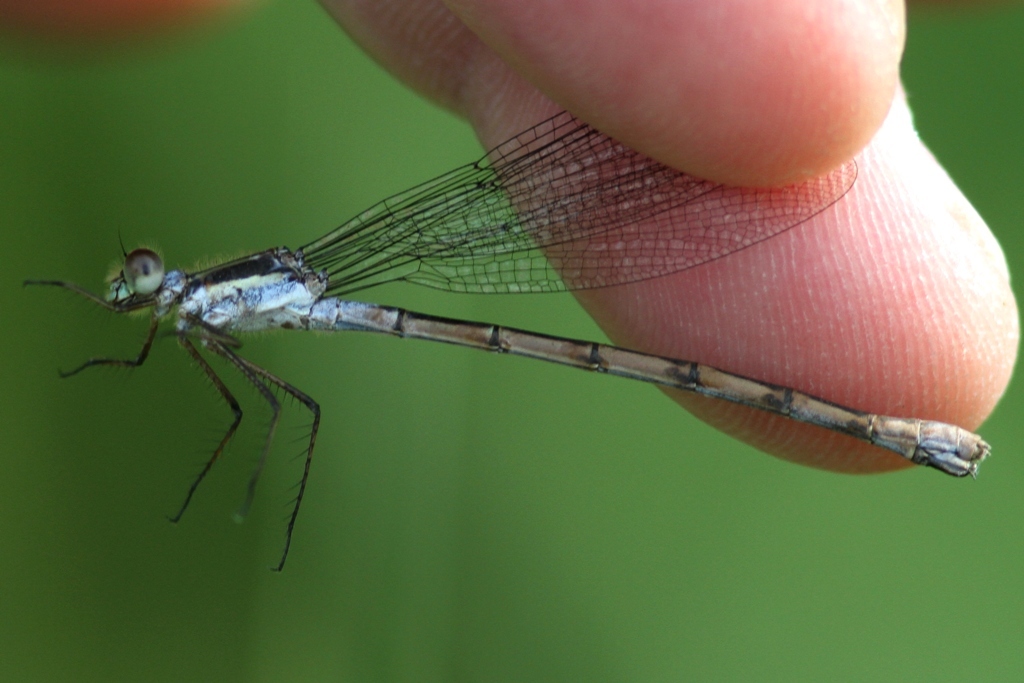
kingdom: Animalia
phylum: Arthropoda
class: Insecta
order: Odonata
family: Lestidae
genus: Lestes
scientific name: Lestes disjunctus
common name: Northern spreadwing
